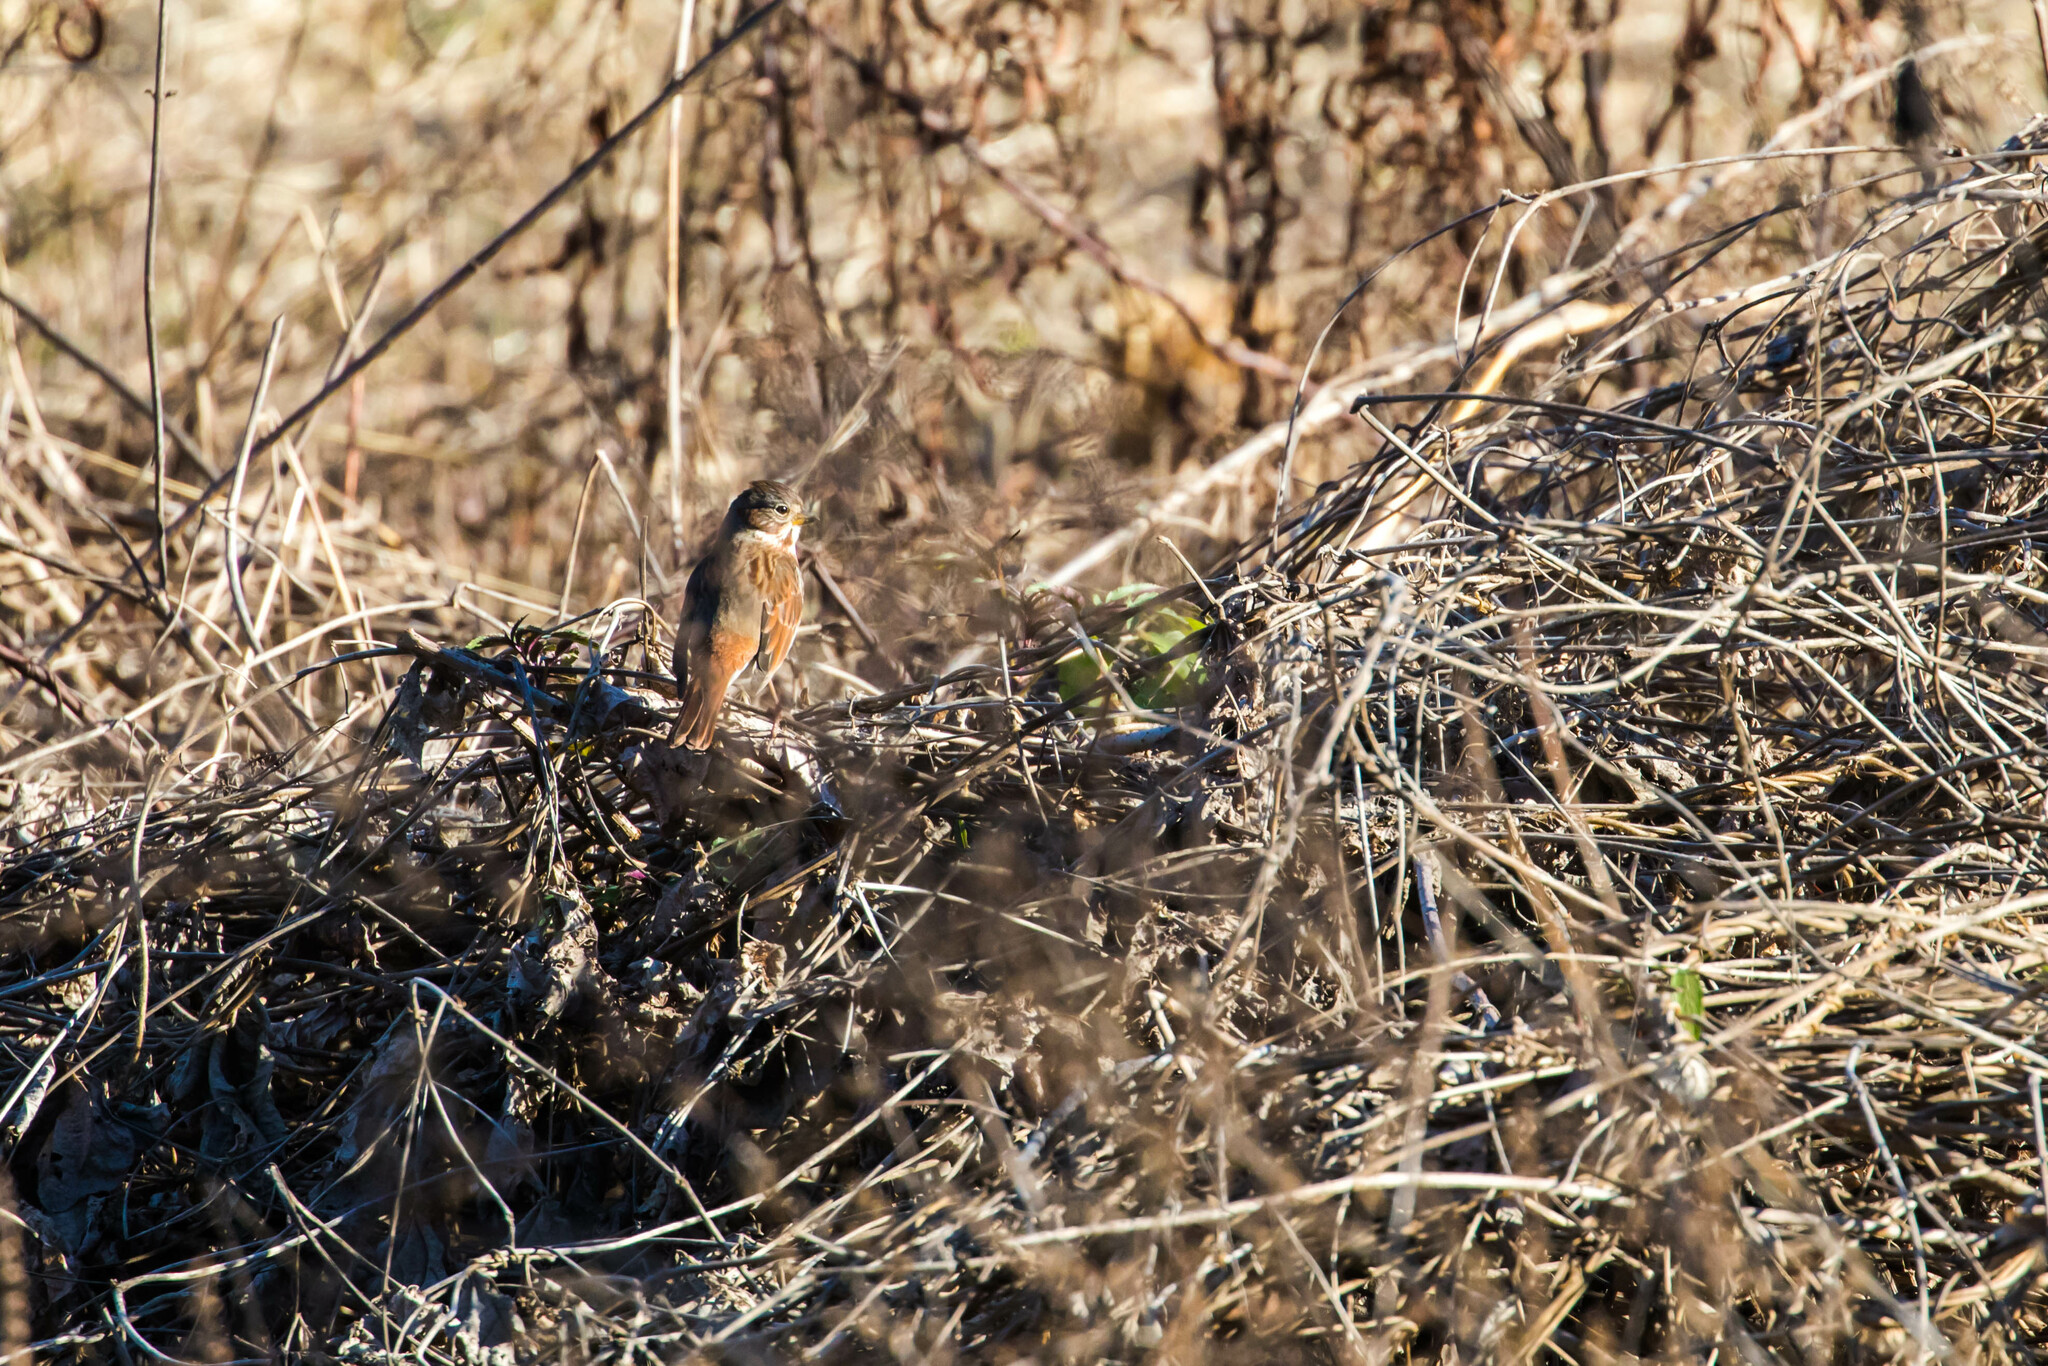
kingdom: Animalia
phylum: Chordata
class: Aves
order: Passeriformes
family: Passerellidae
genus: Passerella
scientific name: Passerella iliaca
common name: Fox sparrow
